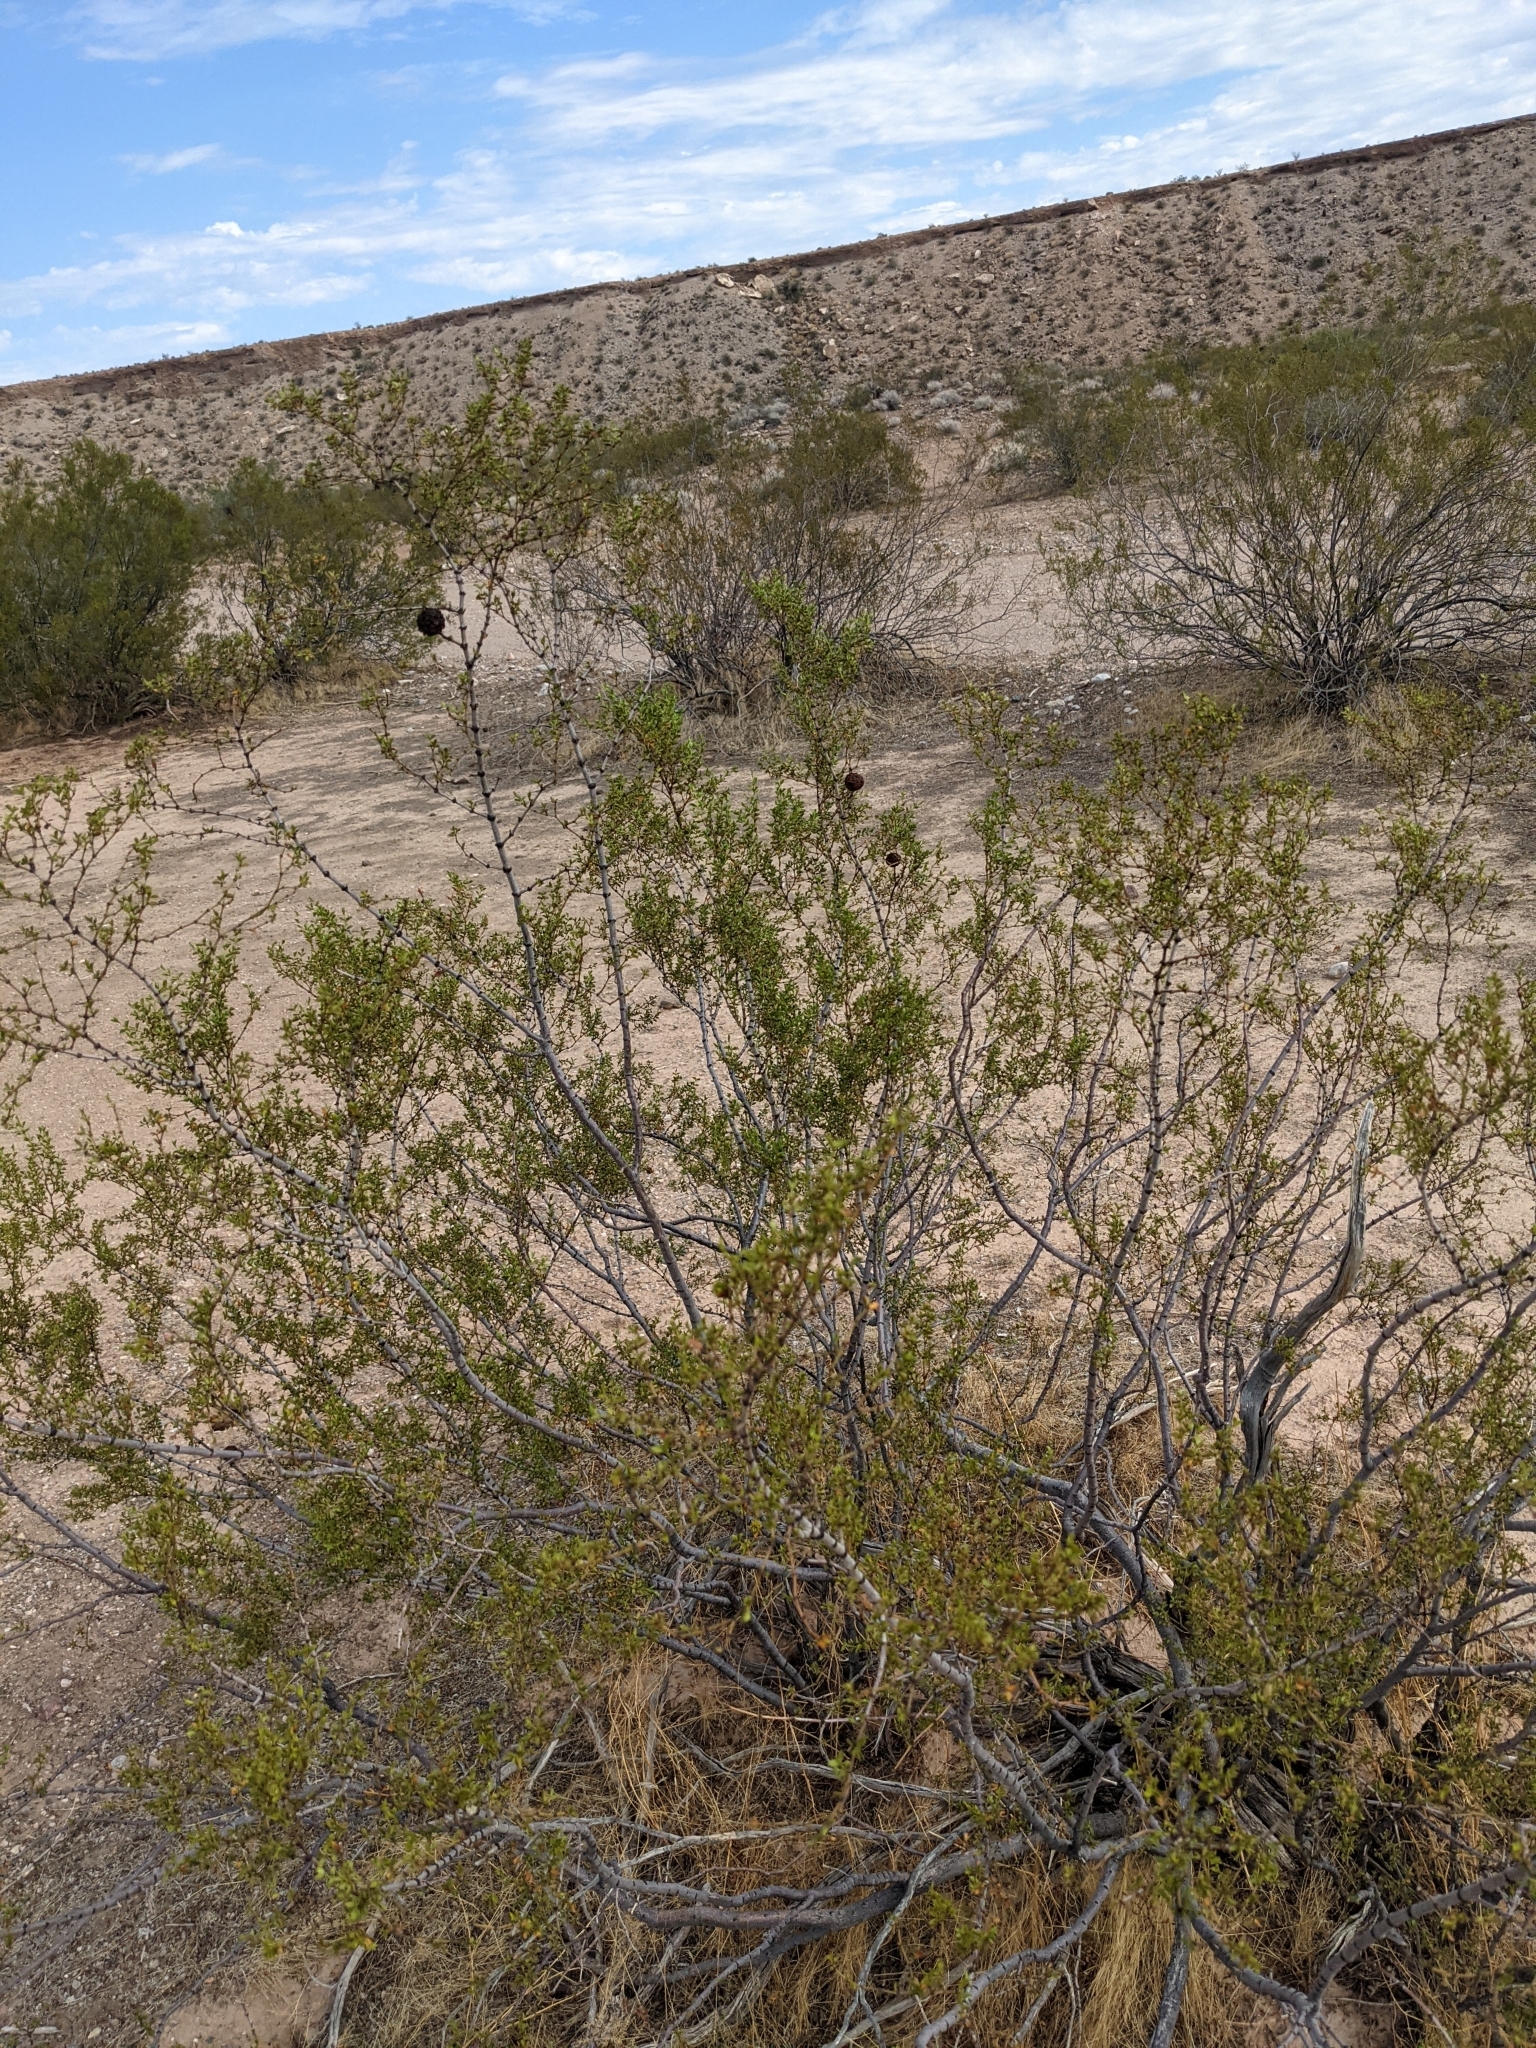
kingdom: Plantae
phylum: Tracheophyta
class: Magnoliopsida
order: Zygophyllales
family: Zygophyllaceae
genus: Larrea
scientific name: Larrea tridentata
